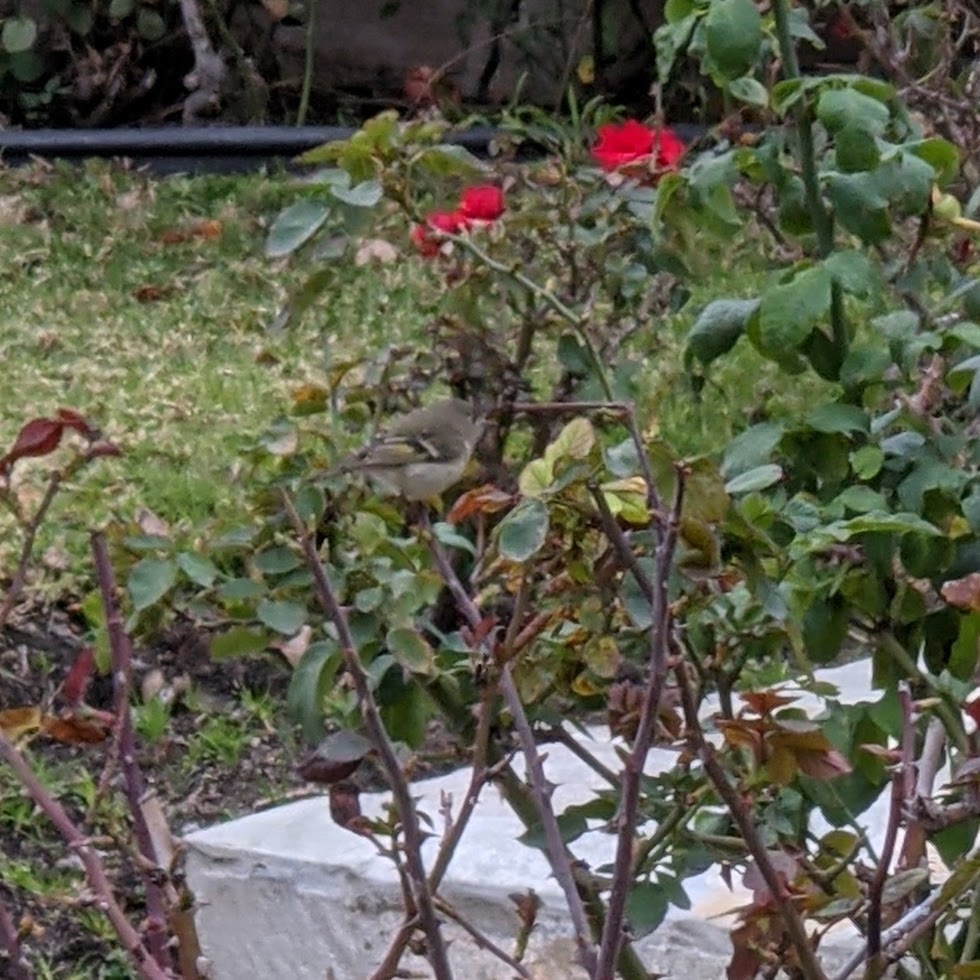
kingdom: Animalia
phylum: Chordata
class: Aves
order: Passeriformes
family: Regulidae
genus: Regulus
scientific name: Regulus calendula
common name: Ruby-crowned kinglet
